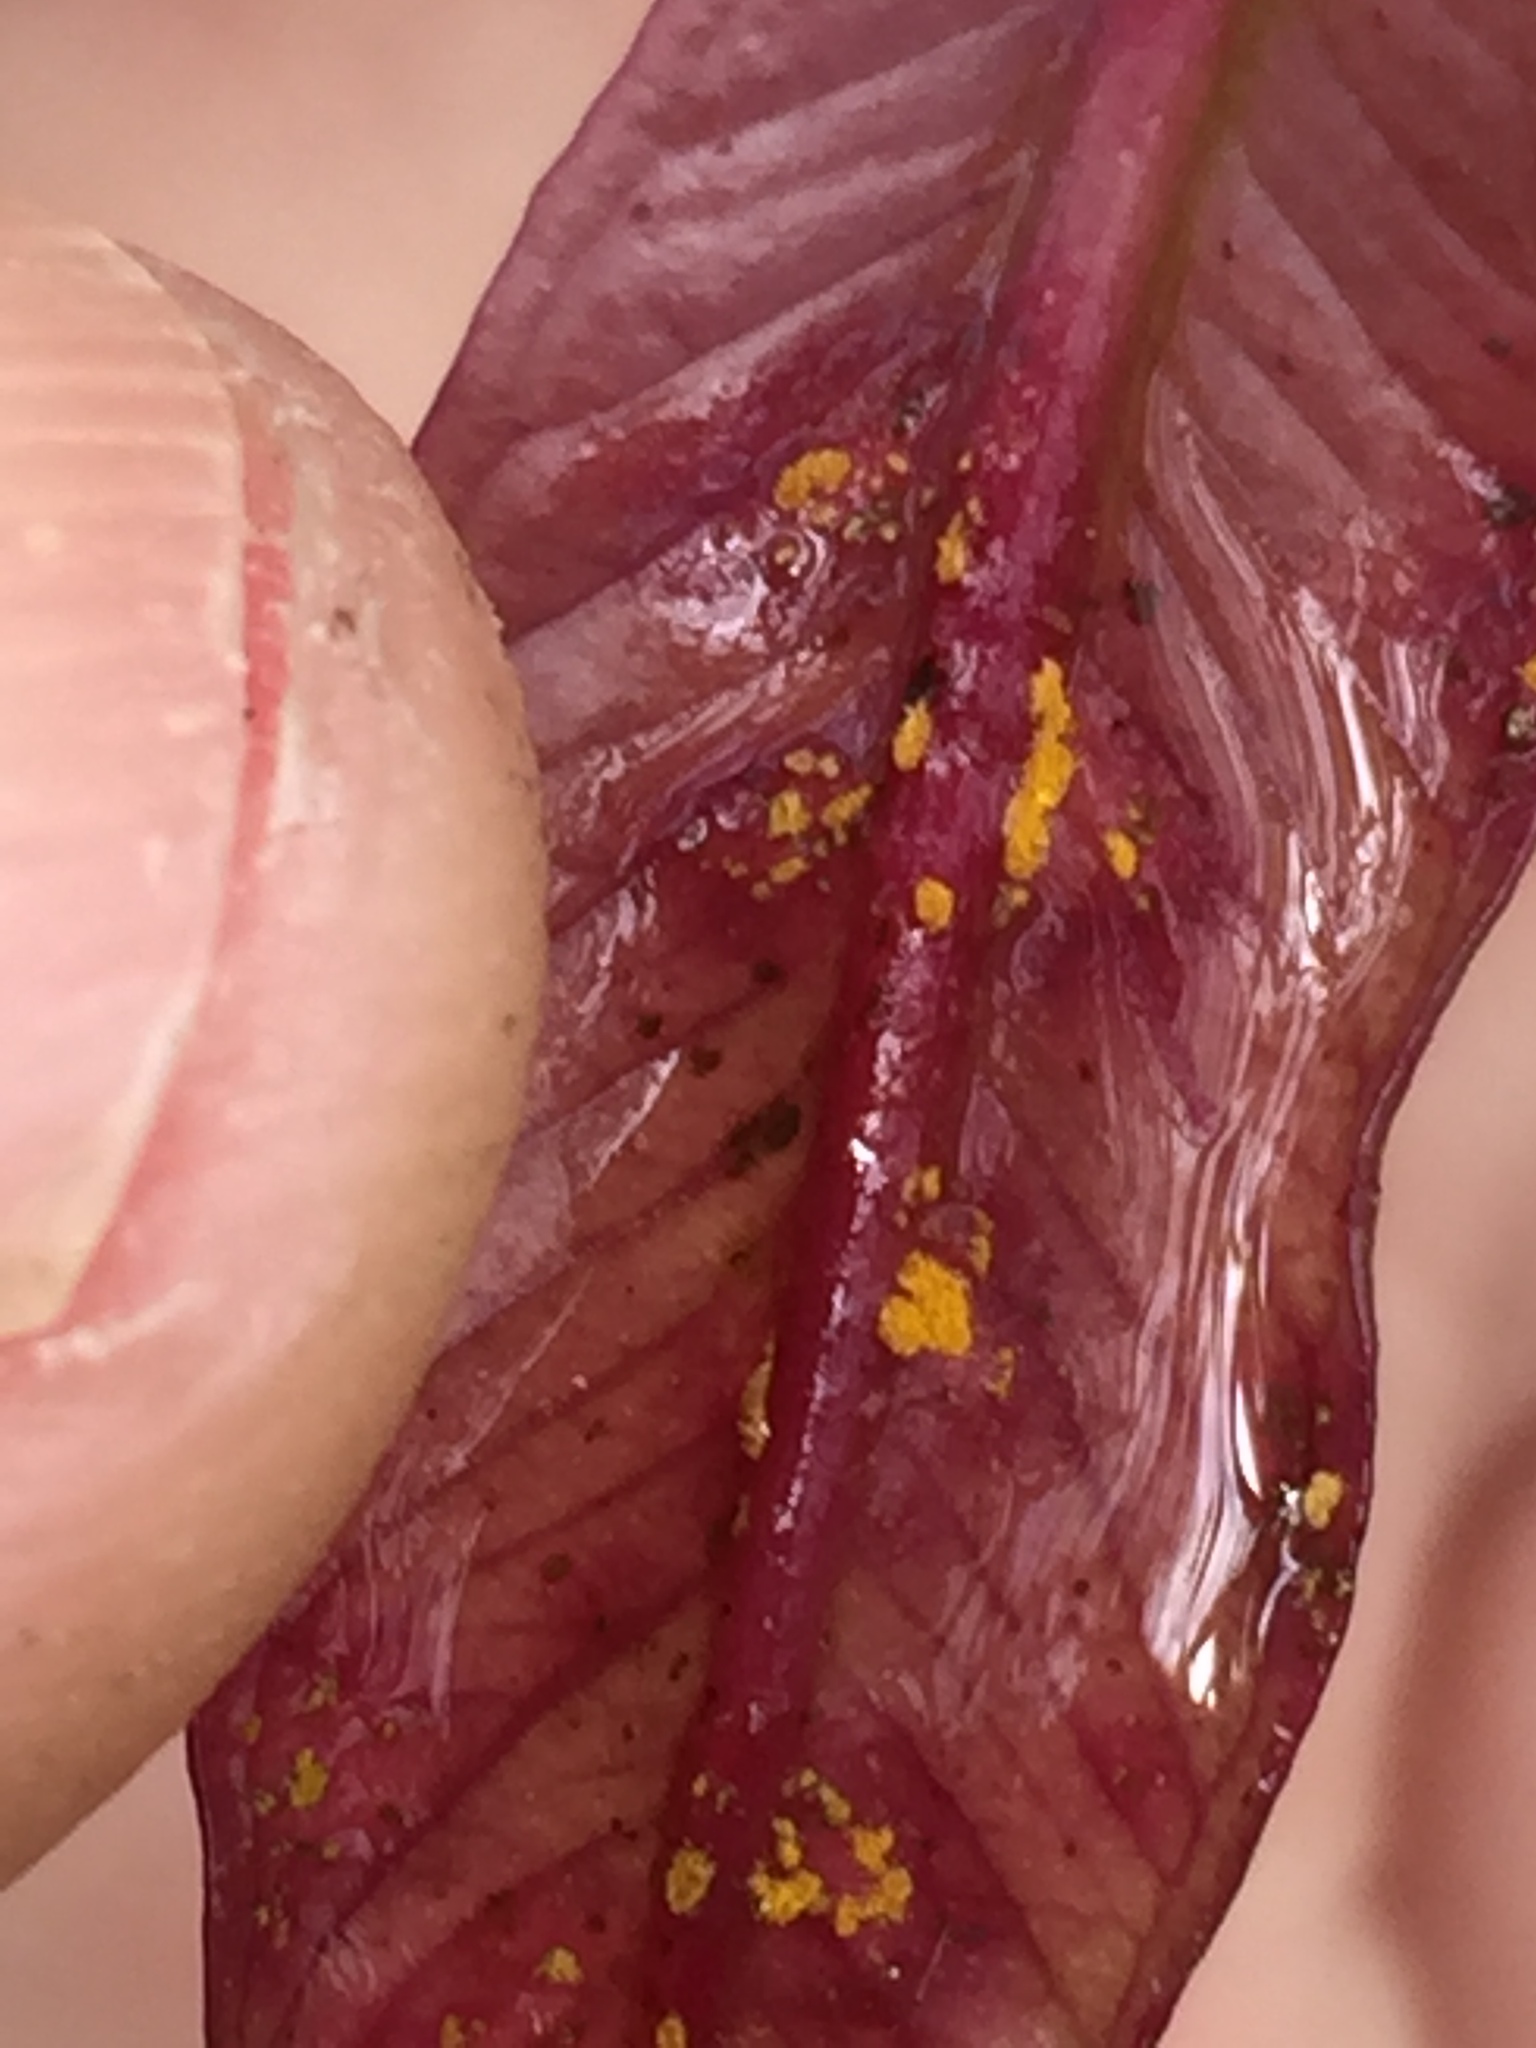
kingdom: Fungi
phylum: Basidiomycota
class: Pucciniomycetes
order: Pucciniales
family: Sphaerophragmiaceae
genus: Austropuccinia
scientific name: Austropuccinia psidii
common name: Myrtle rust
